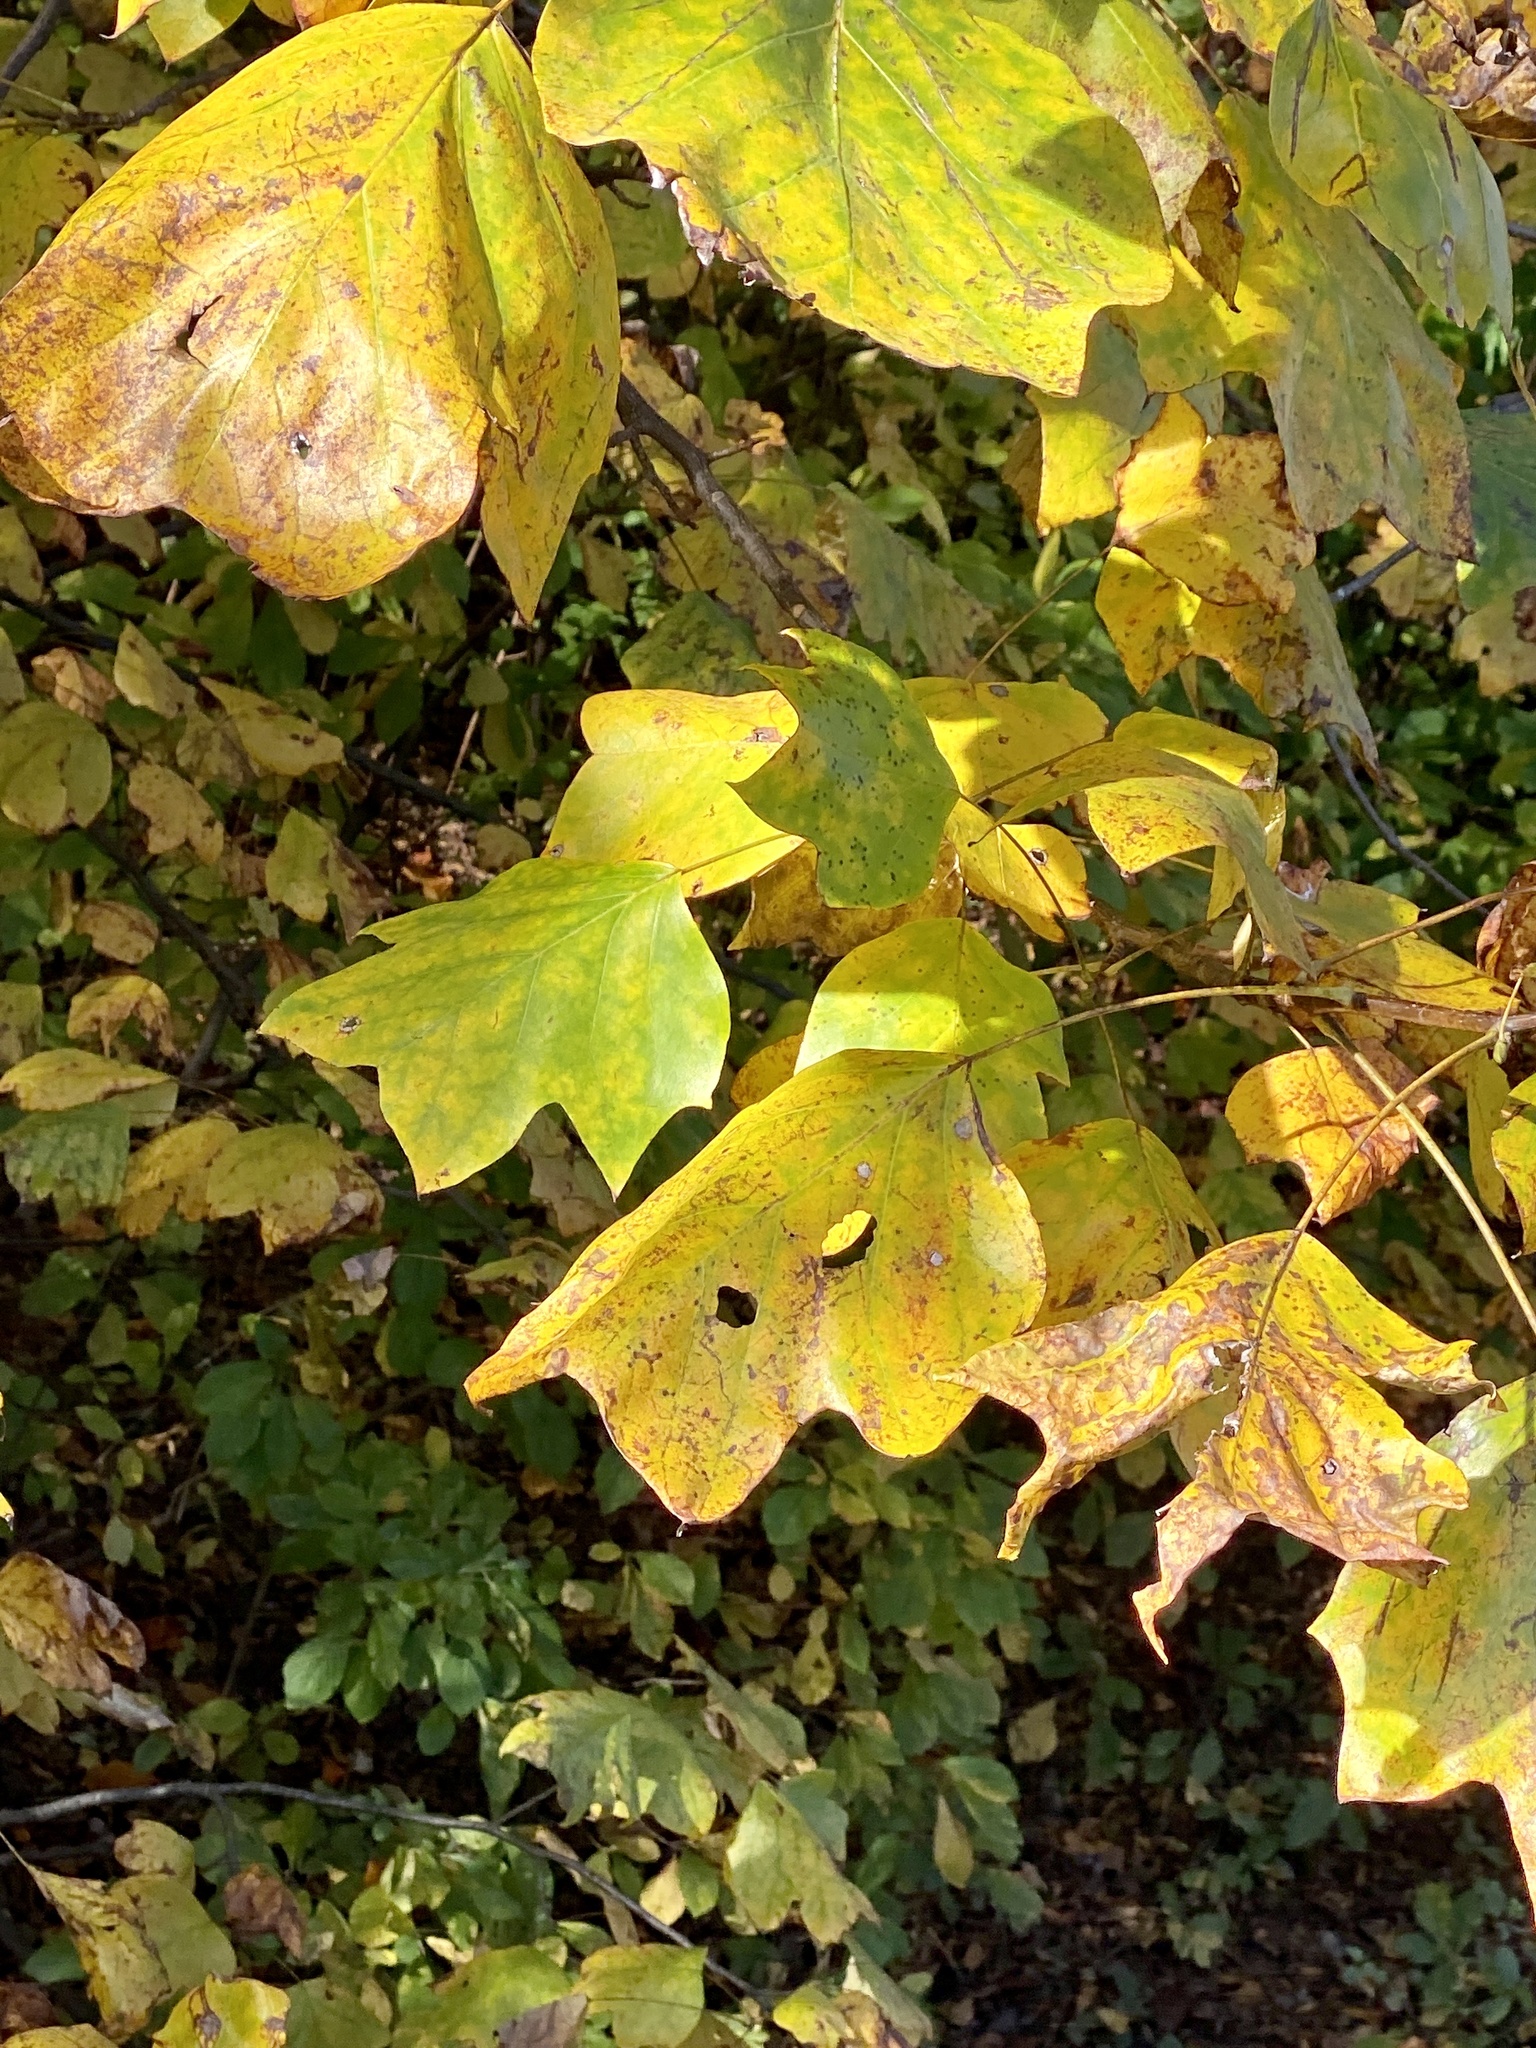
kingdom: Plantae
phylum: Tracheophyta
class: Magnoliopsida
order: Magnoliales
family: Magnoliaceae
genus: Liriodendron
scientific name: Liriodendron tulipifera
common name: Tulip tree
